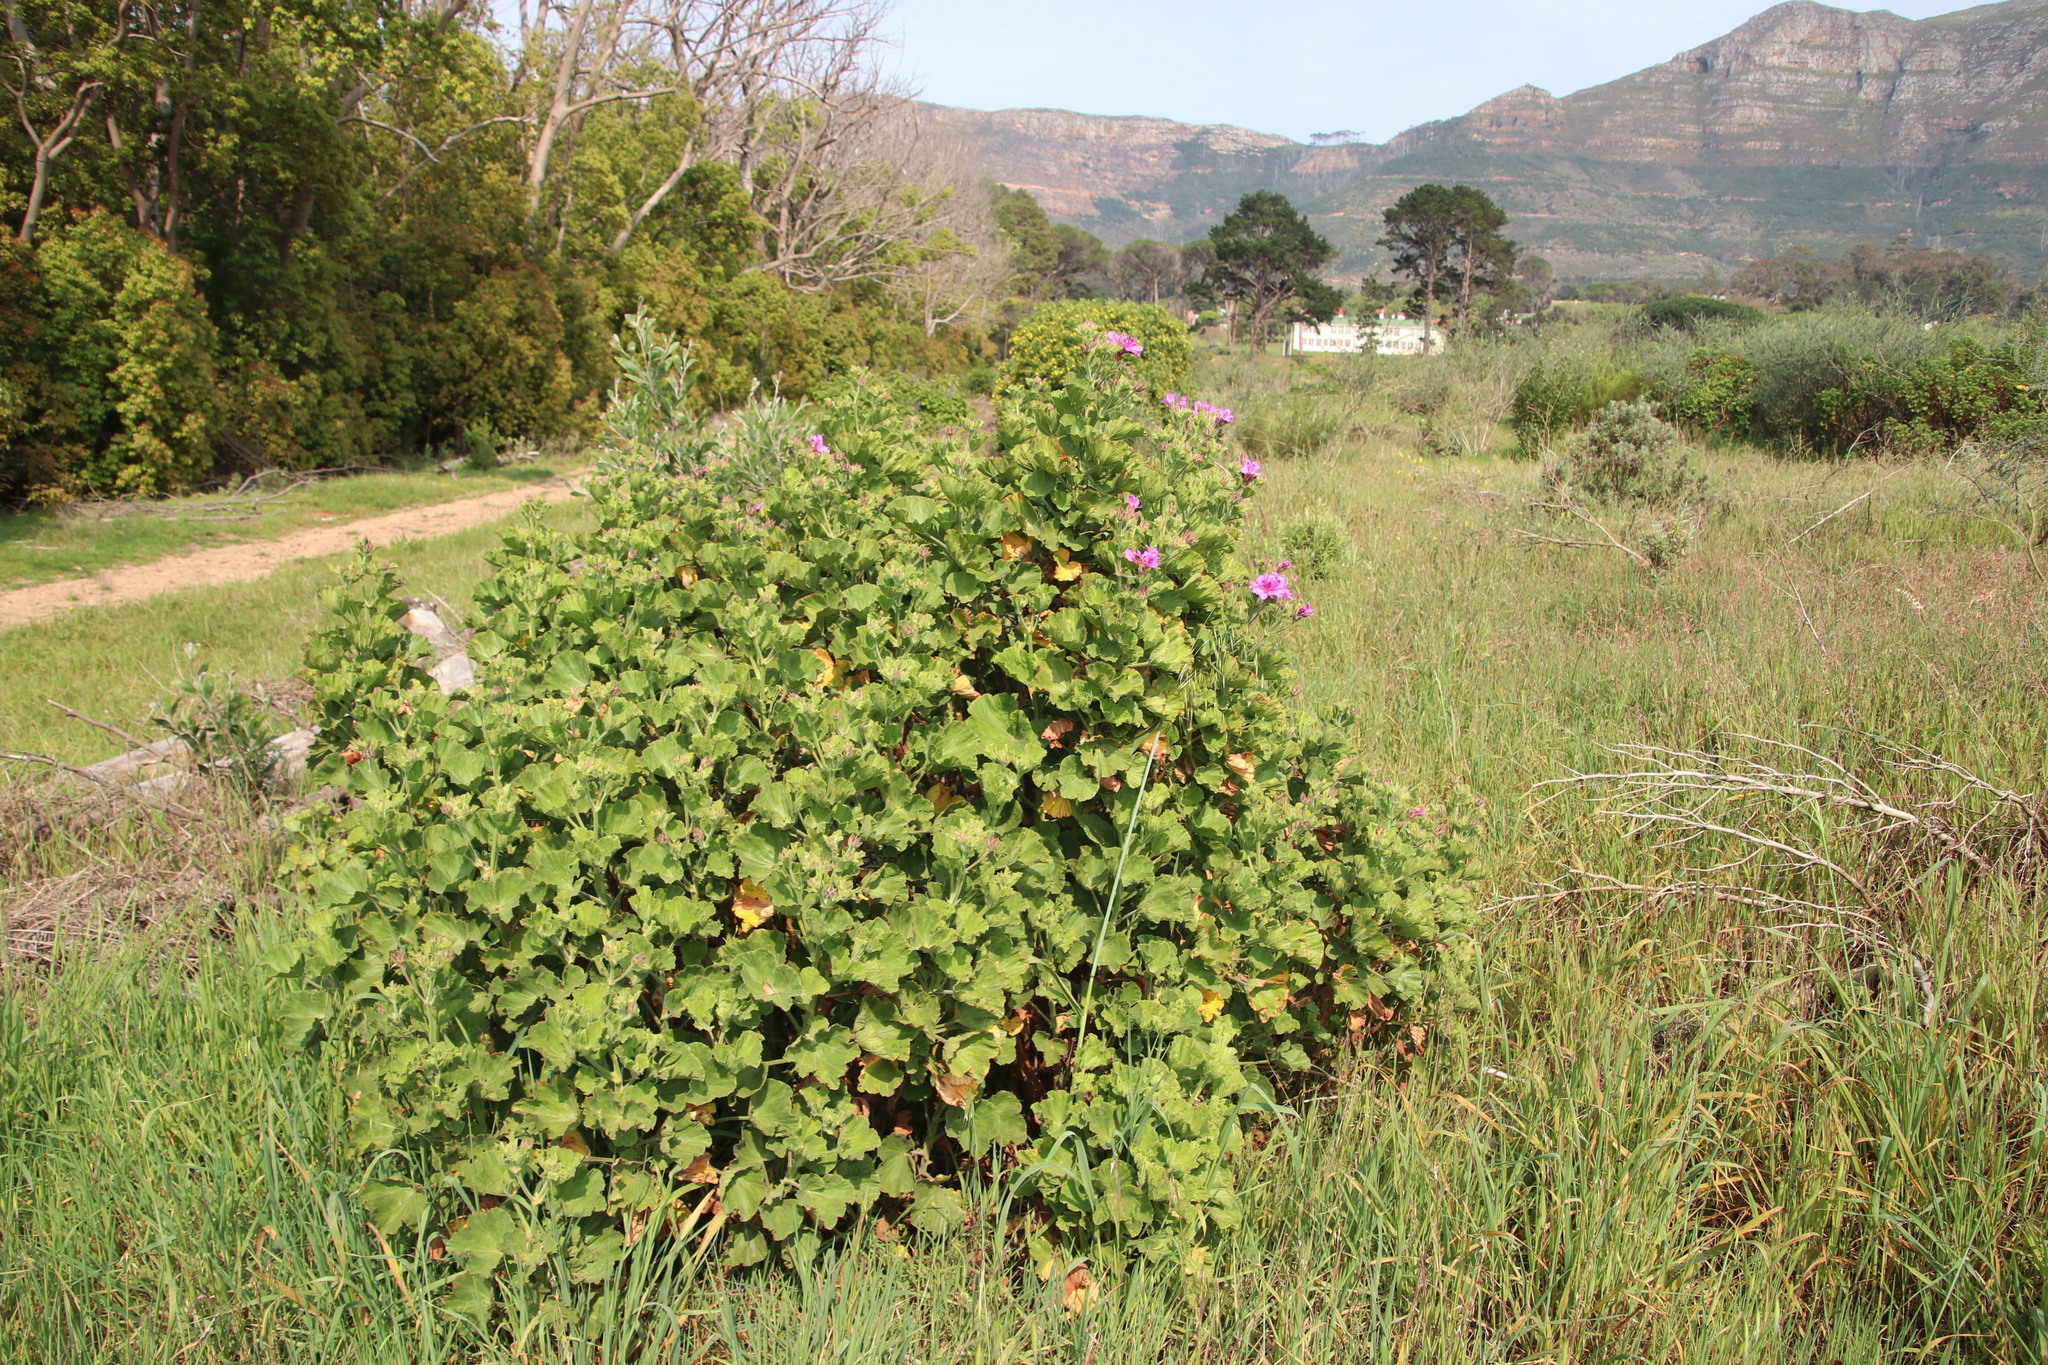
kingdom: Plantae
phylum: Tracheophyta
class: Magnoliopsida
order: Geraniales
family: Geraniaceae
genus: Pelargonium
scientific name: Pelargonium cucullatum
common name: Tree pelargonium
